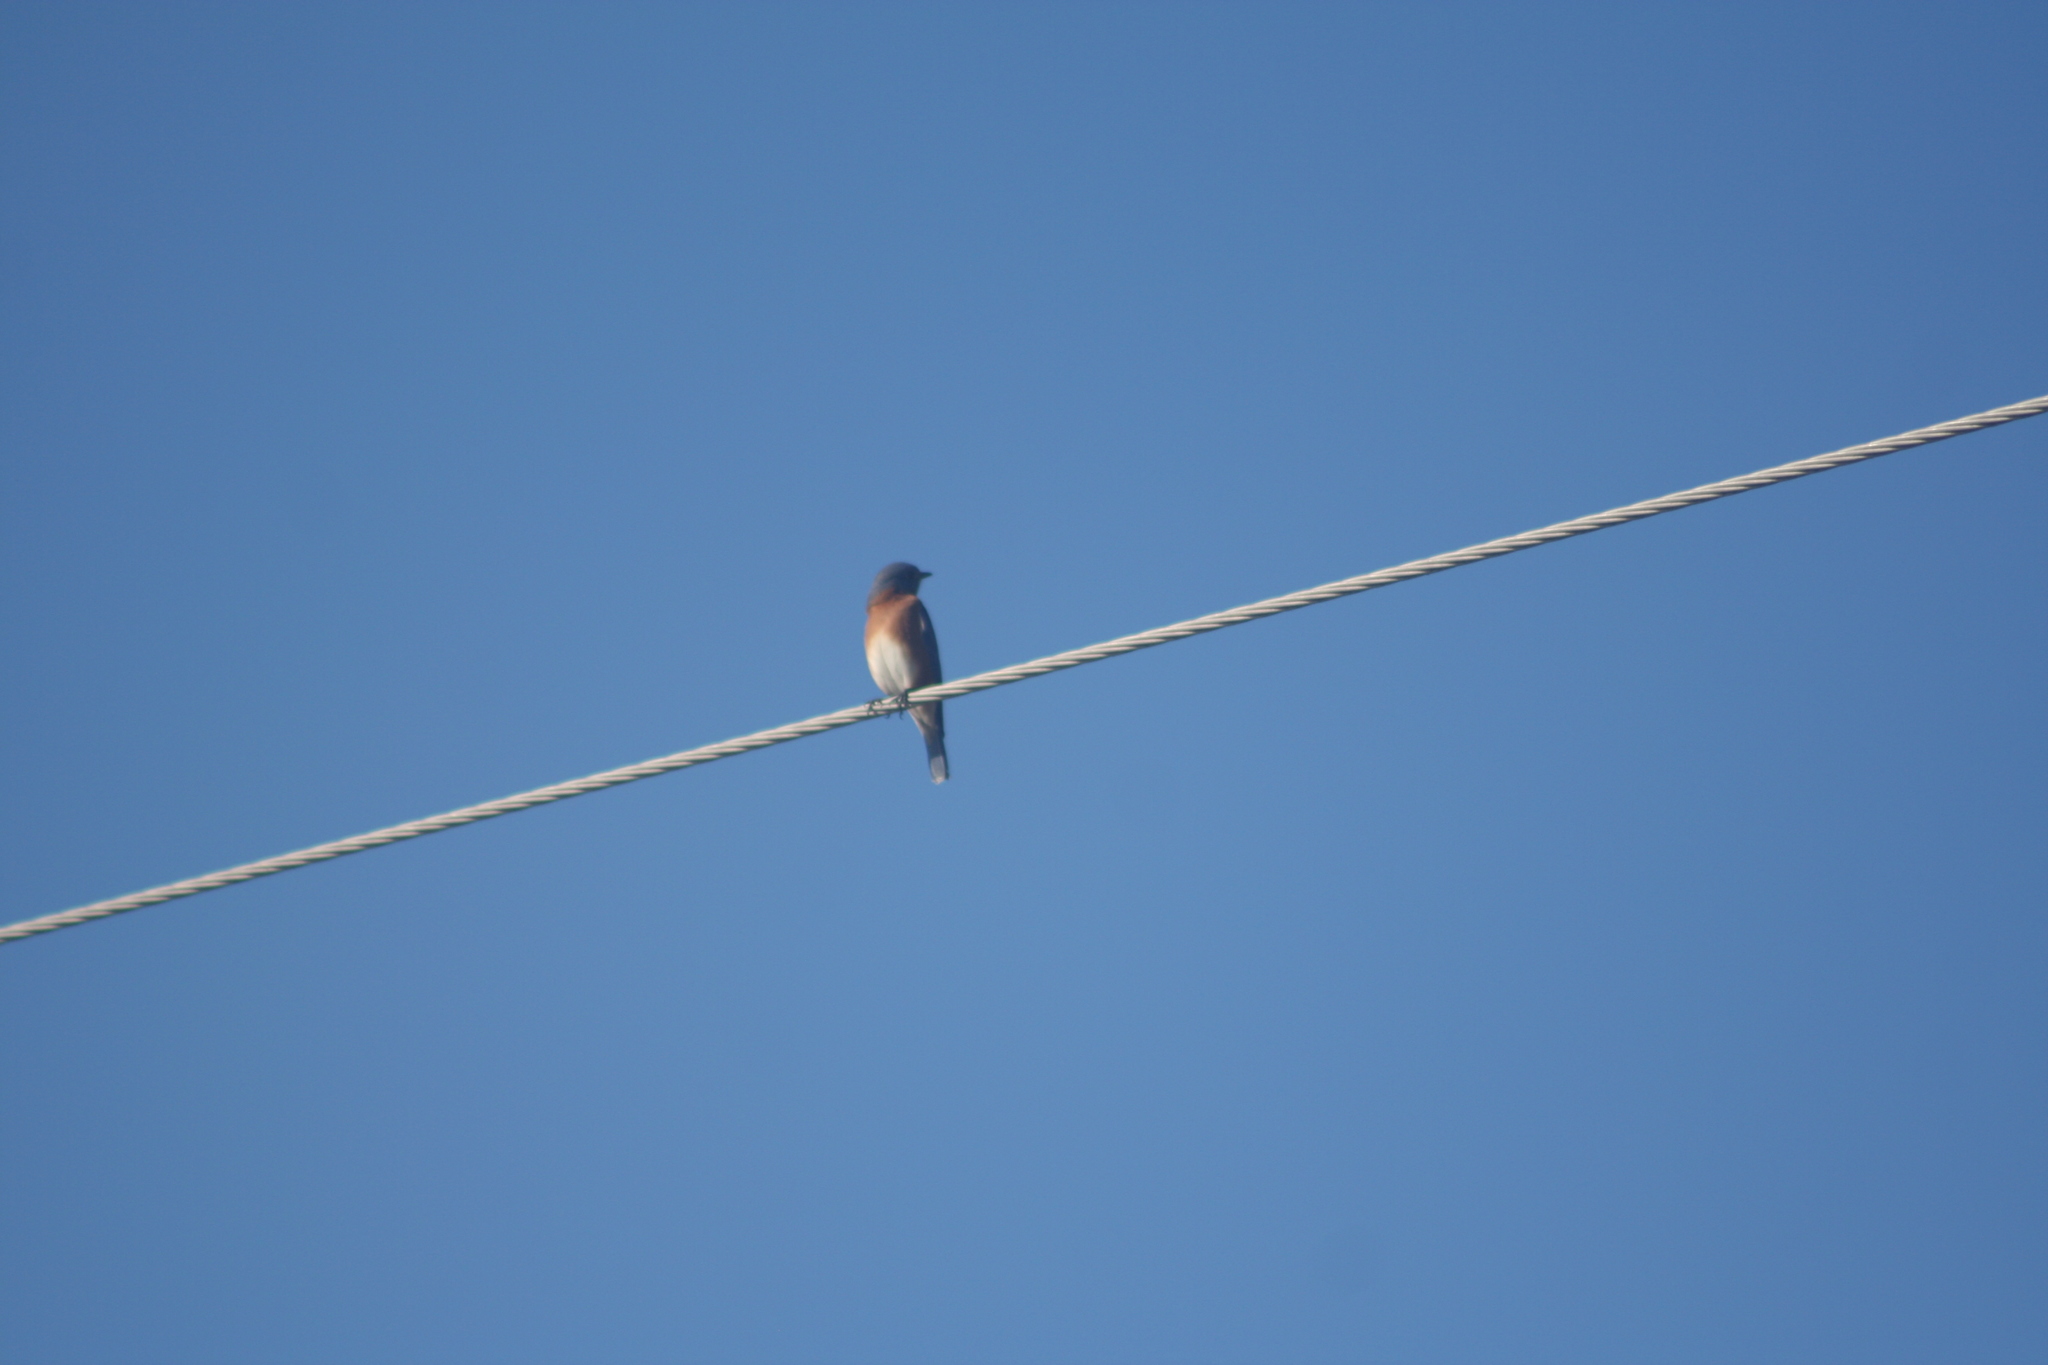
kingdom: Animalia
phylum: Chordata
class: Aves
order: Passeriformes
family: Turdidae
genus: Sialia
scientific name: Sialia sialis
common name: Eastern bluebird
